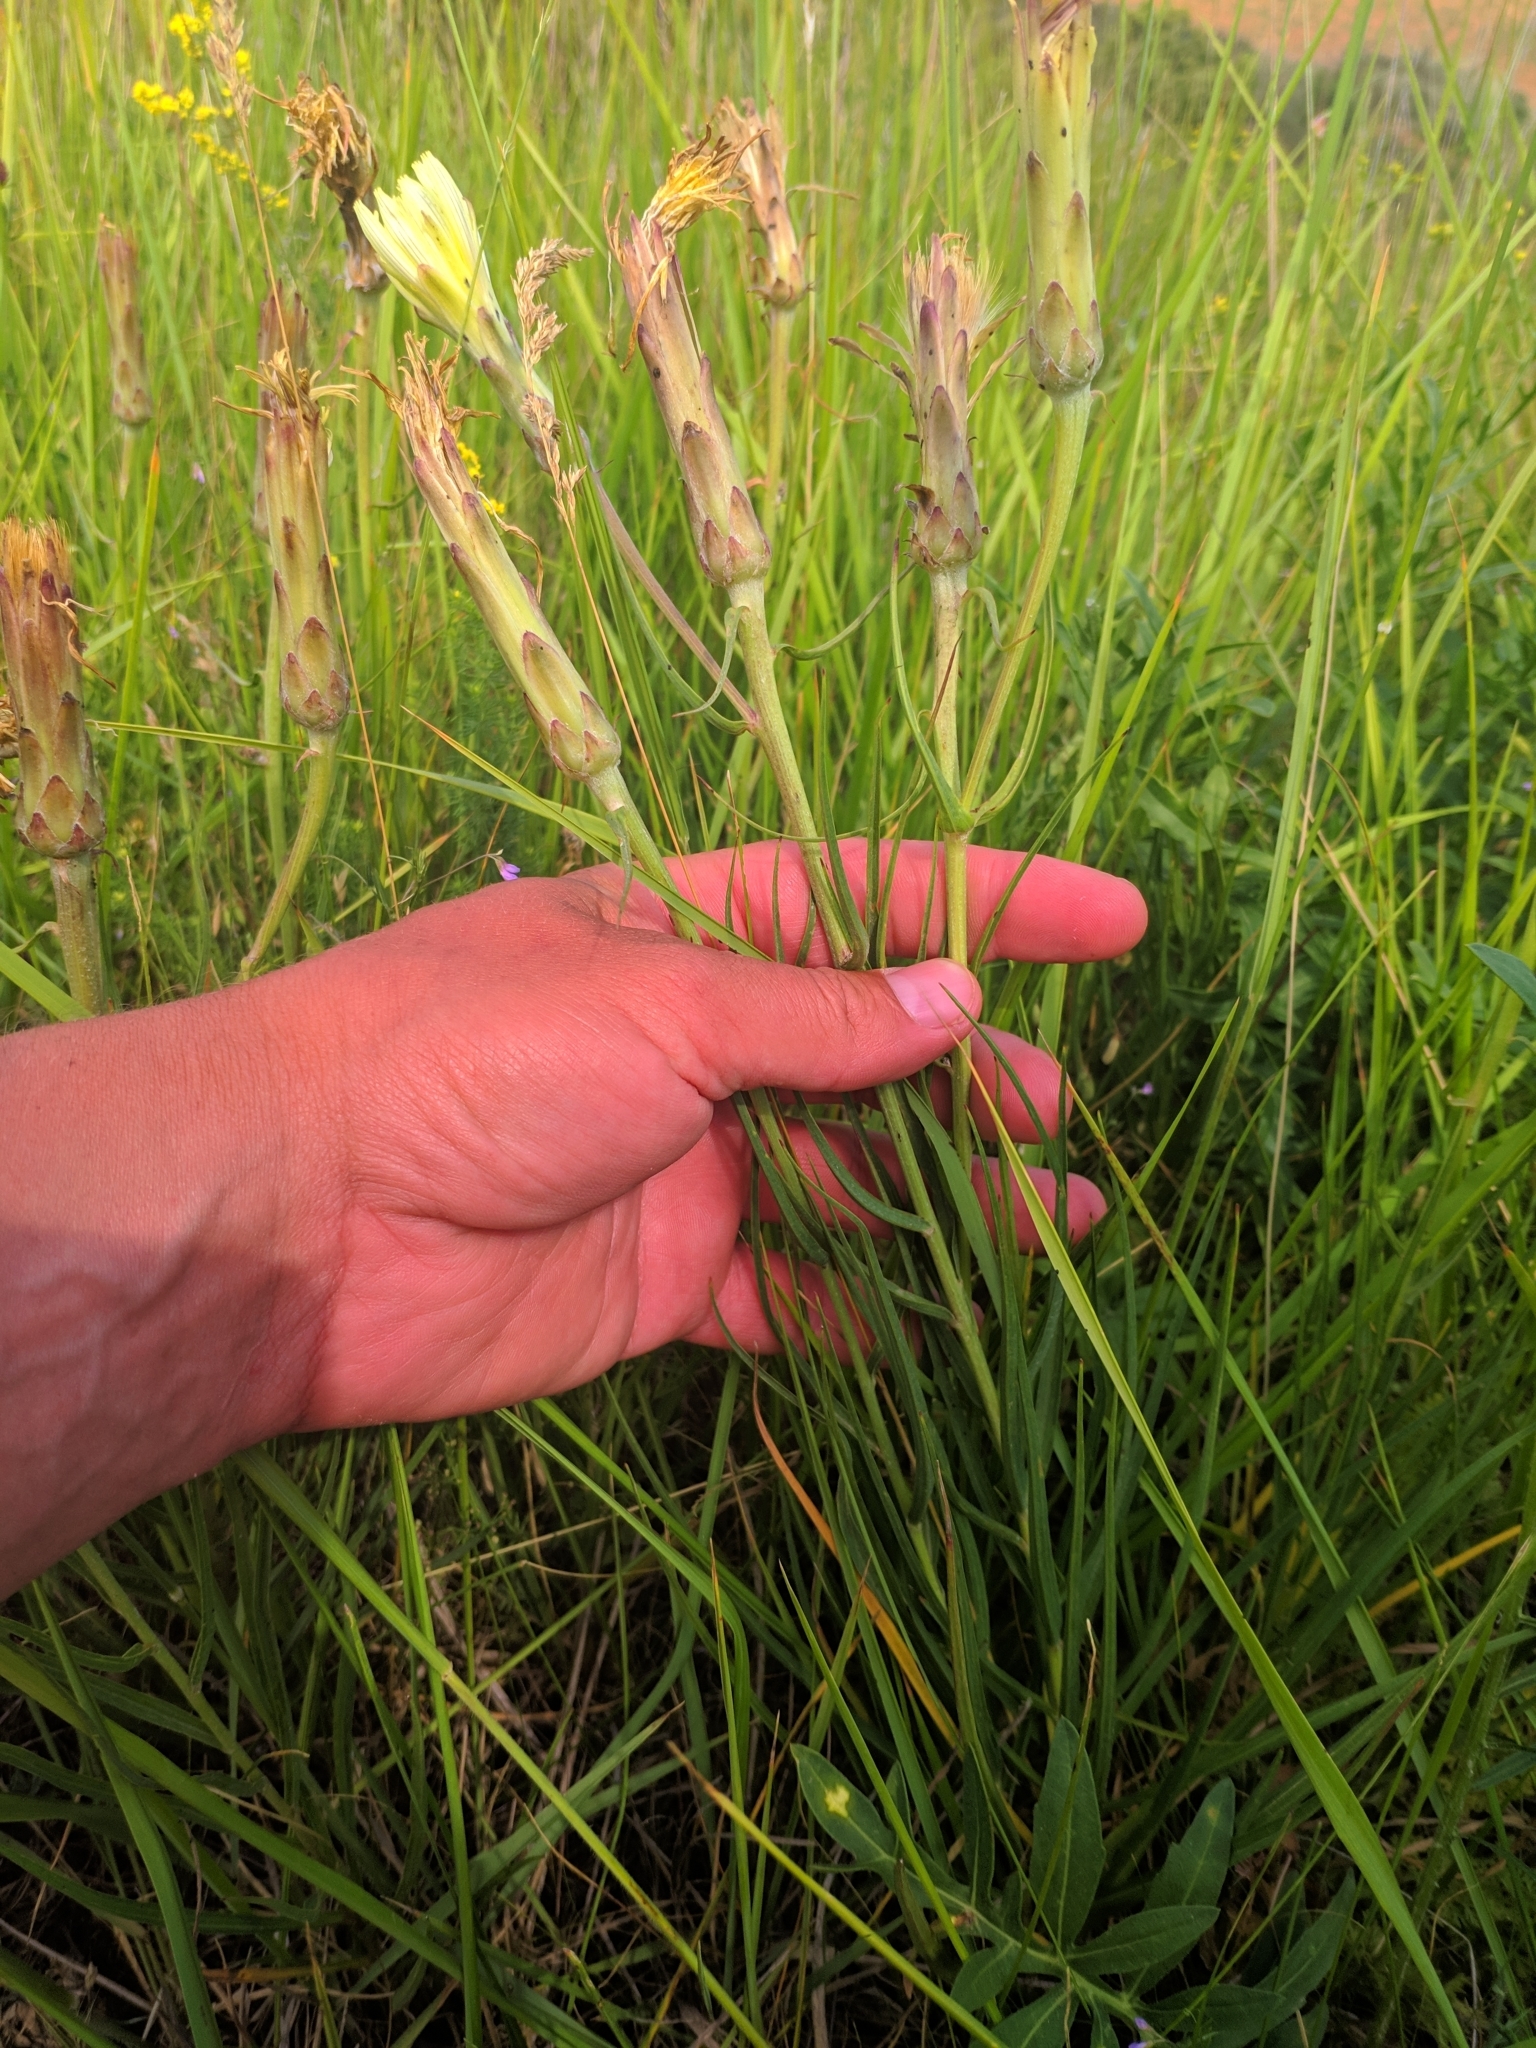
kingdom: Plantae
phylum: Tracheophyta
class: Magnoliopsida
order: Asterales
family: Asteraceae
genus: Scorzonera
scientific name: Scorzonera angustifolia
